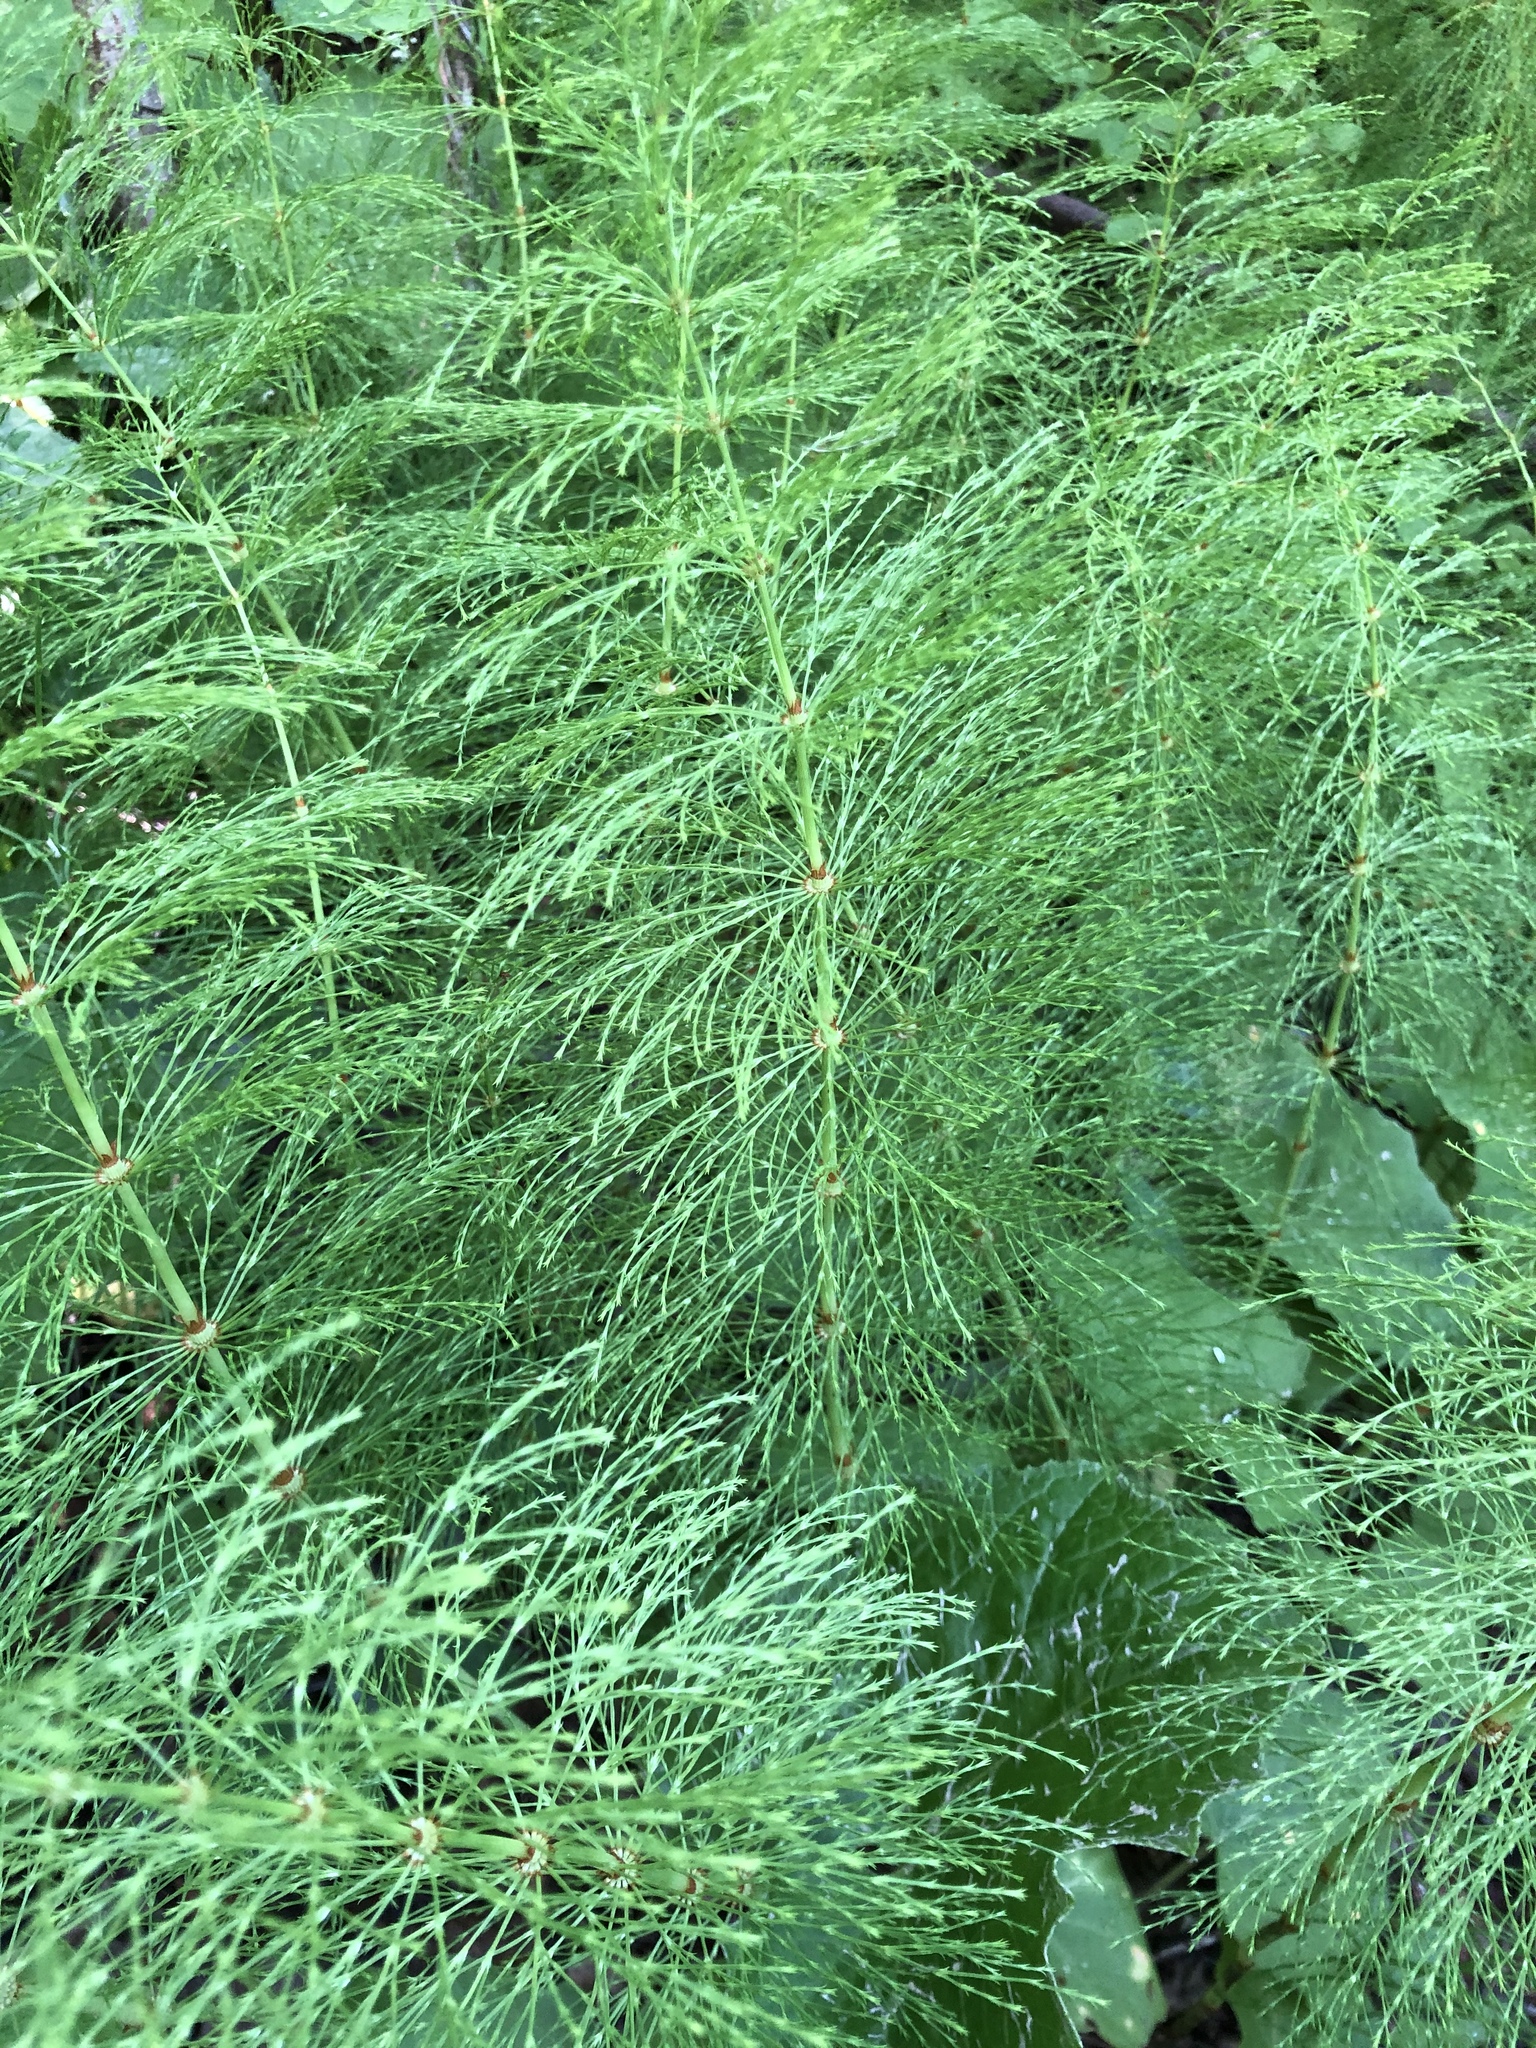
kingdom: Plantae
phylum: Tracheophyta
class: Polypodiopsida
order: Equisetales
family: Equisetaceae
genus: Equisetum
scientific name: Equisetum sylvaticum
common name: Wood horsetail
